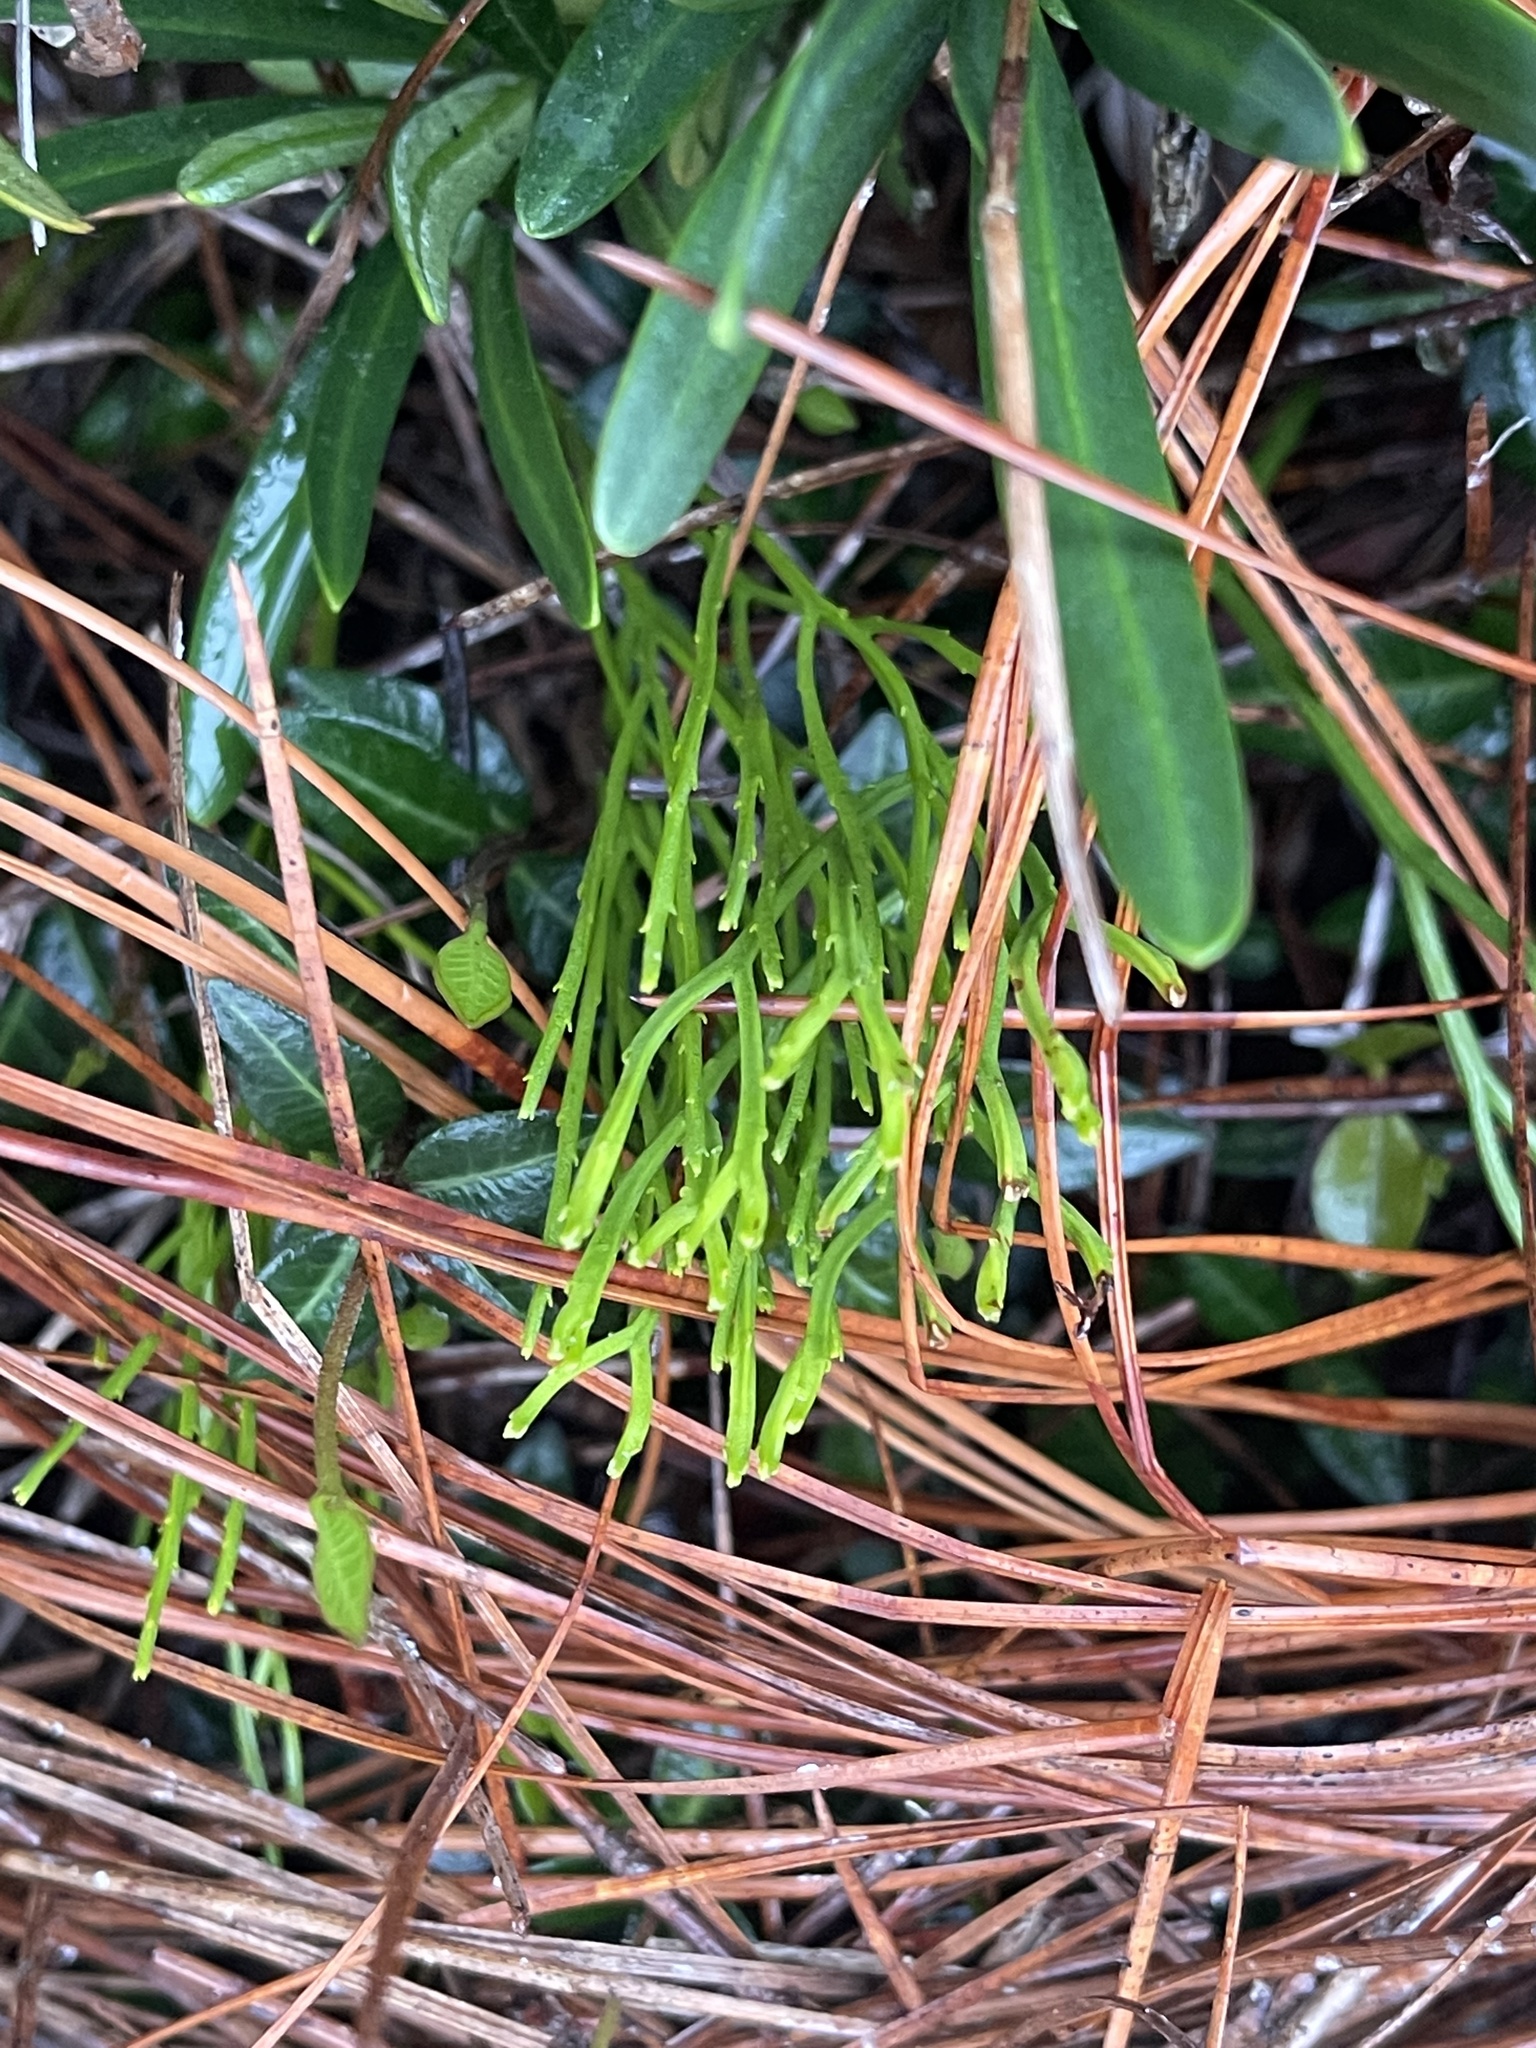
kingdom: Plantae
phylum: Tracheophyta
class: Polypodiopsida
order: Psilotales
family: Psilotaceae
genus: Psilotum
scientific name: Psilotum nudum
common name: Skeleton fork fern
